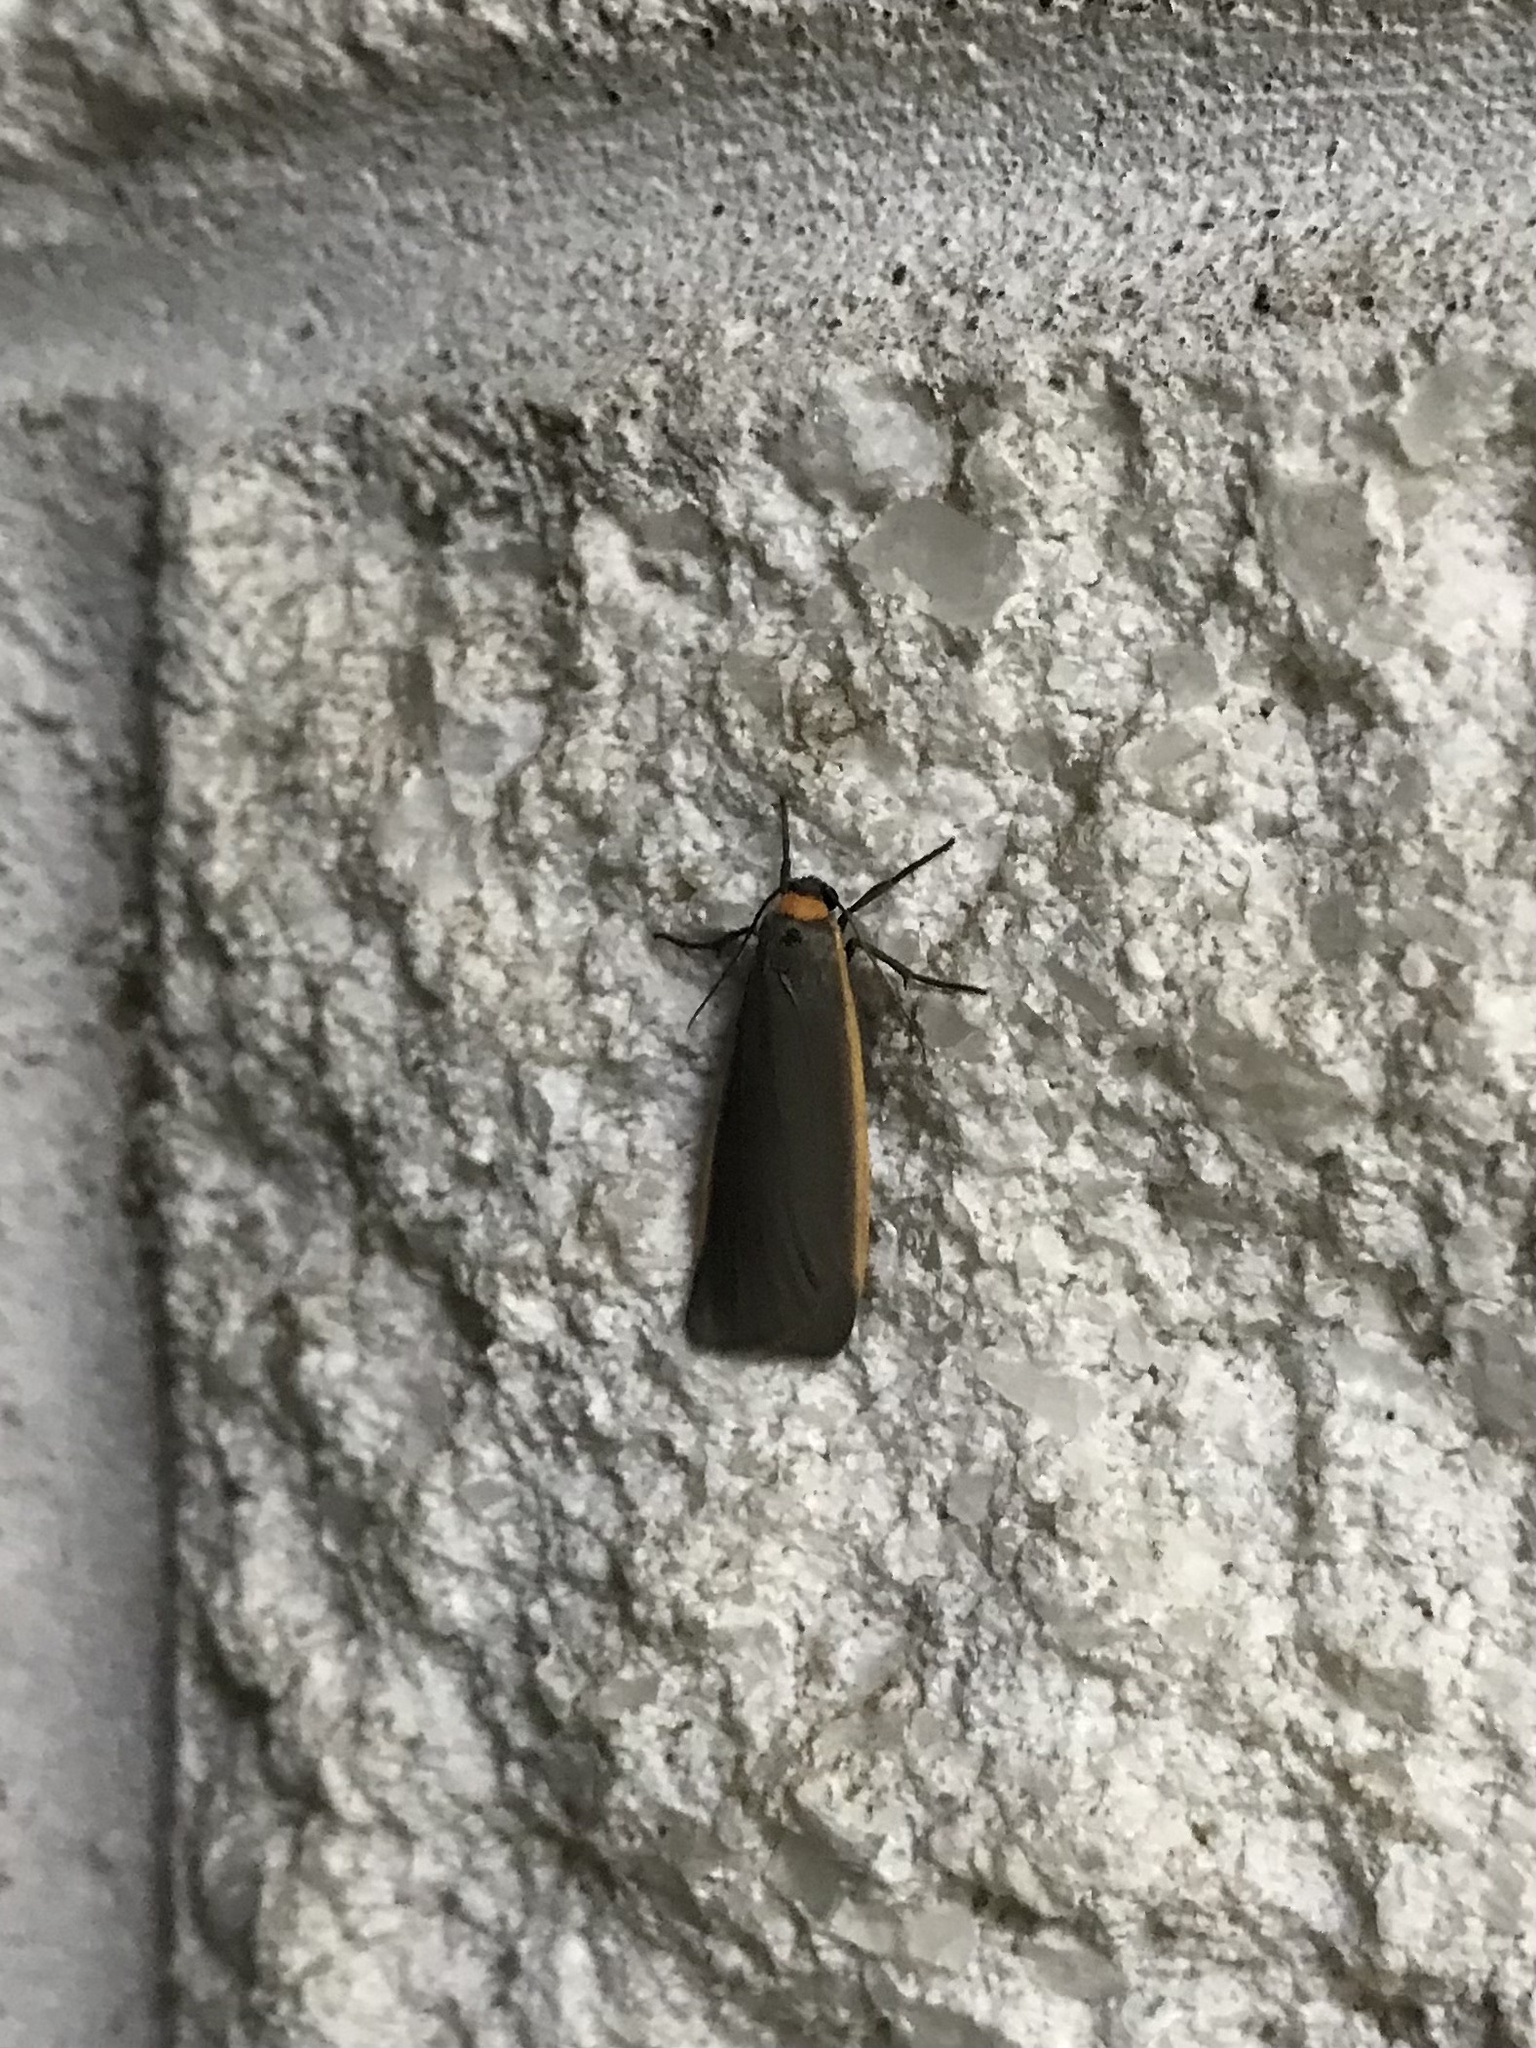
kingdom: Animalia
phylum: Arthropoda
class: Insecta
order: Lepidoptera
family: Erebidae
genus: Manulea
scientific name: Manulea bicolor
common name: Bicolored moth
